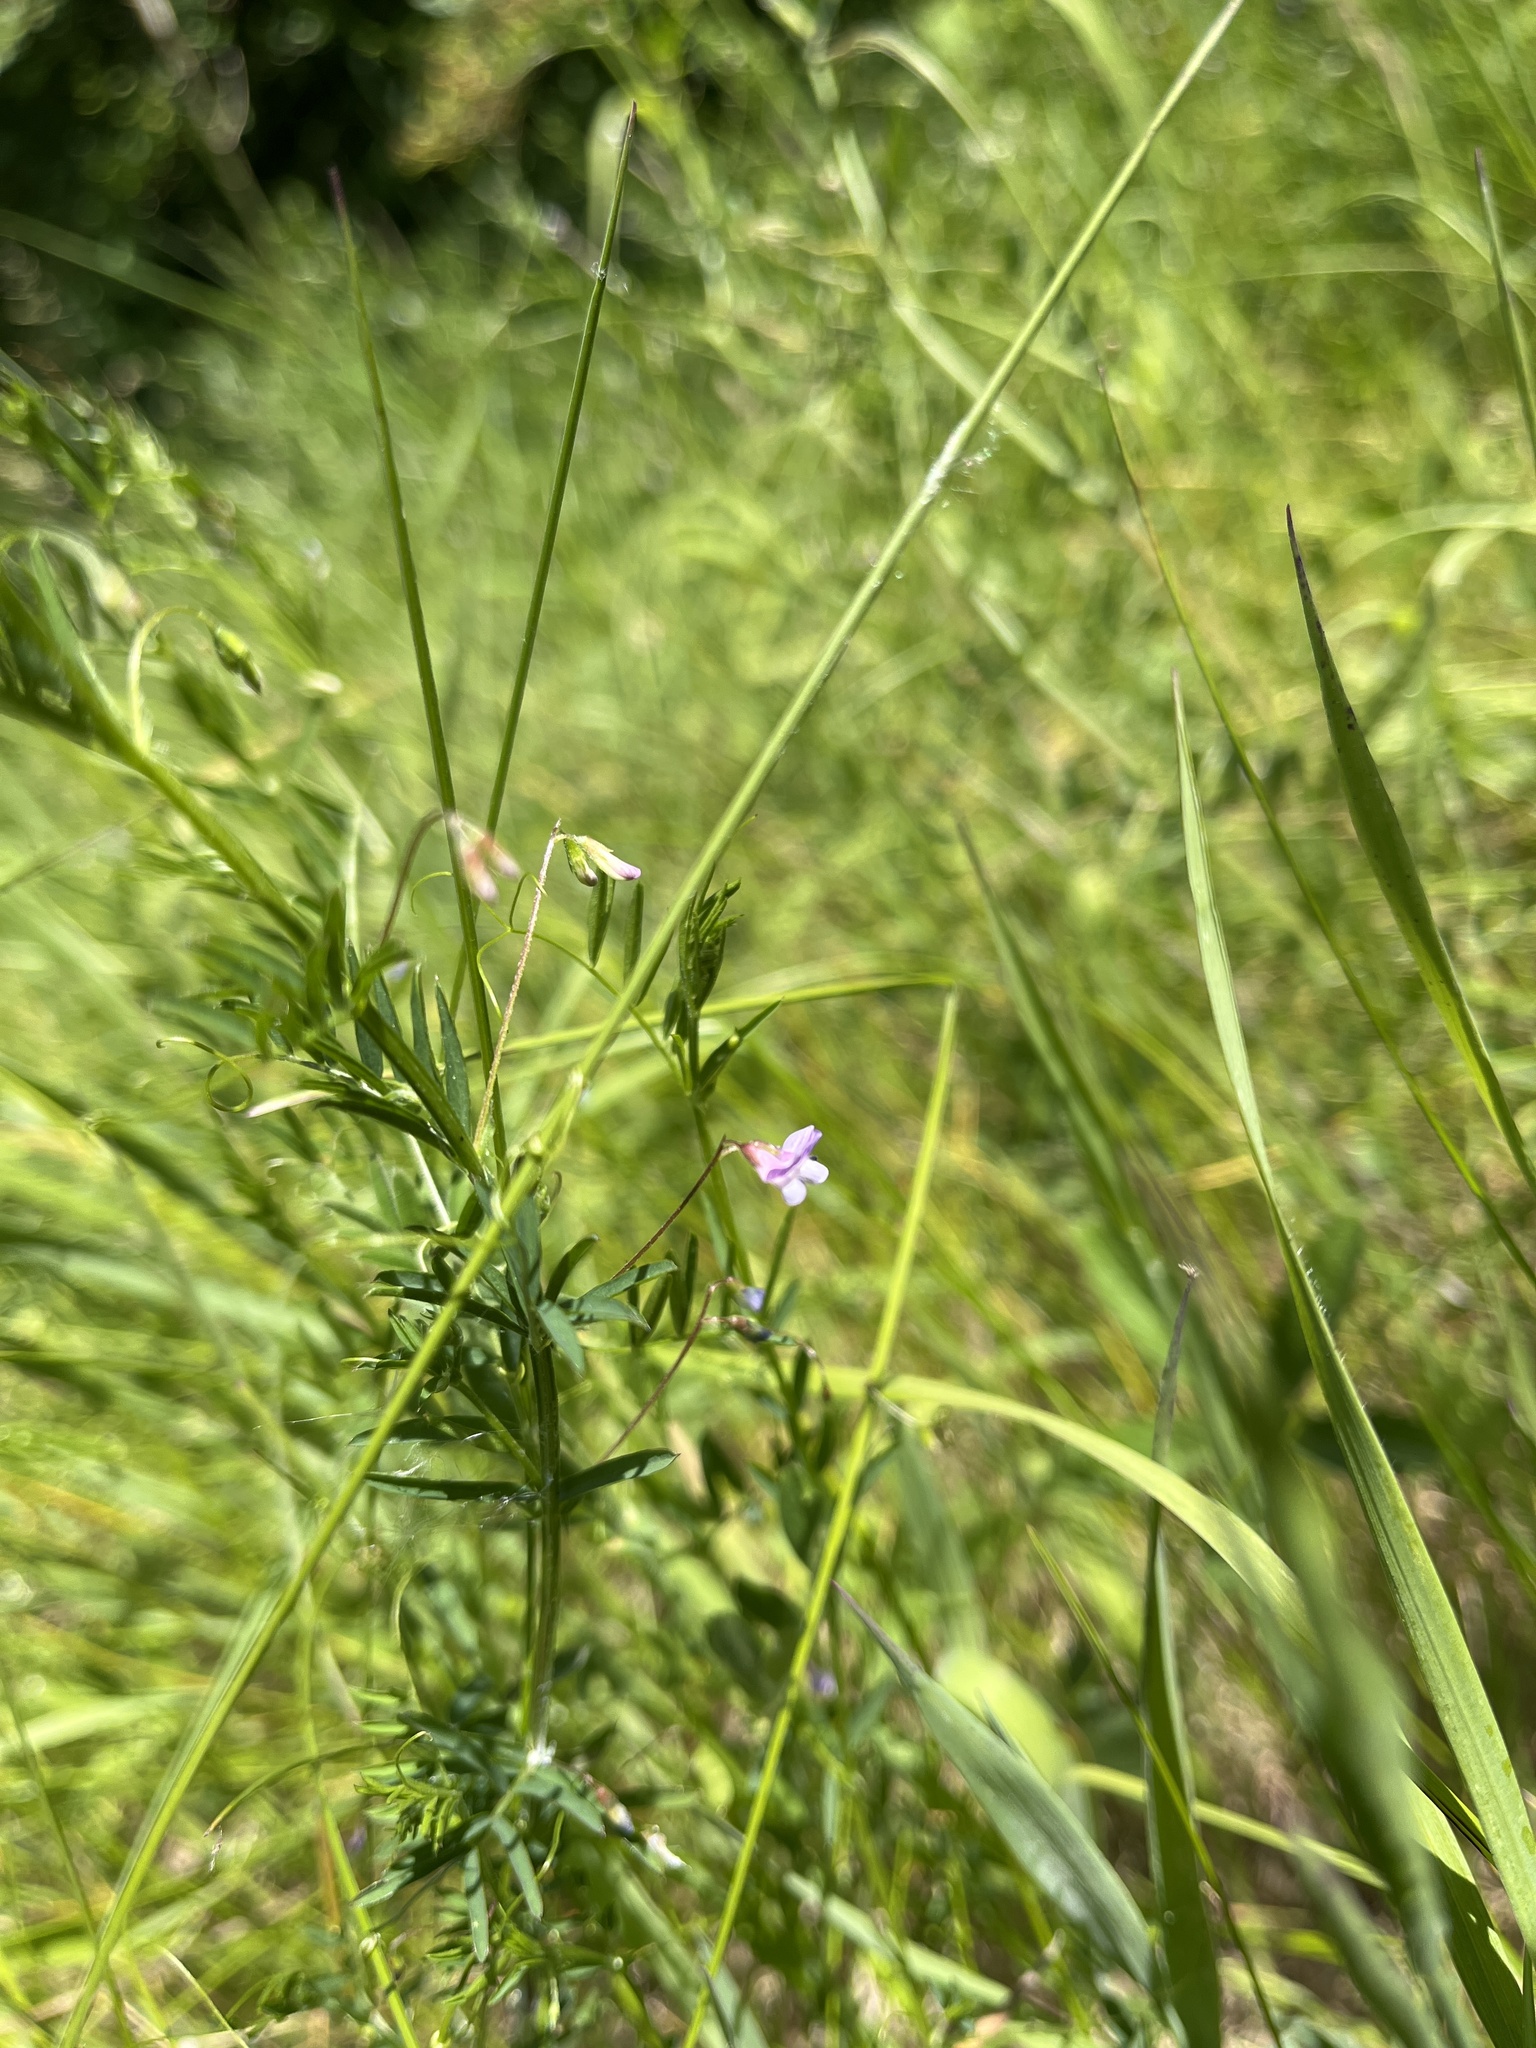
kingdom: Plantae
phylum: Tracheophyta
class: Magnoliopsida
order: Fabales
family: Fabaceae
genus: Vicia
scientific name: Vicia tetrasperma
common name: Smooth tare
